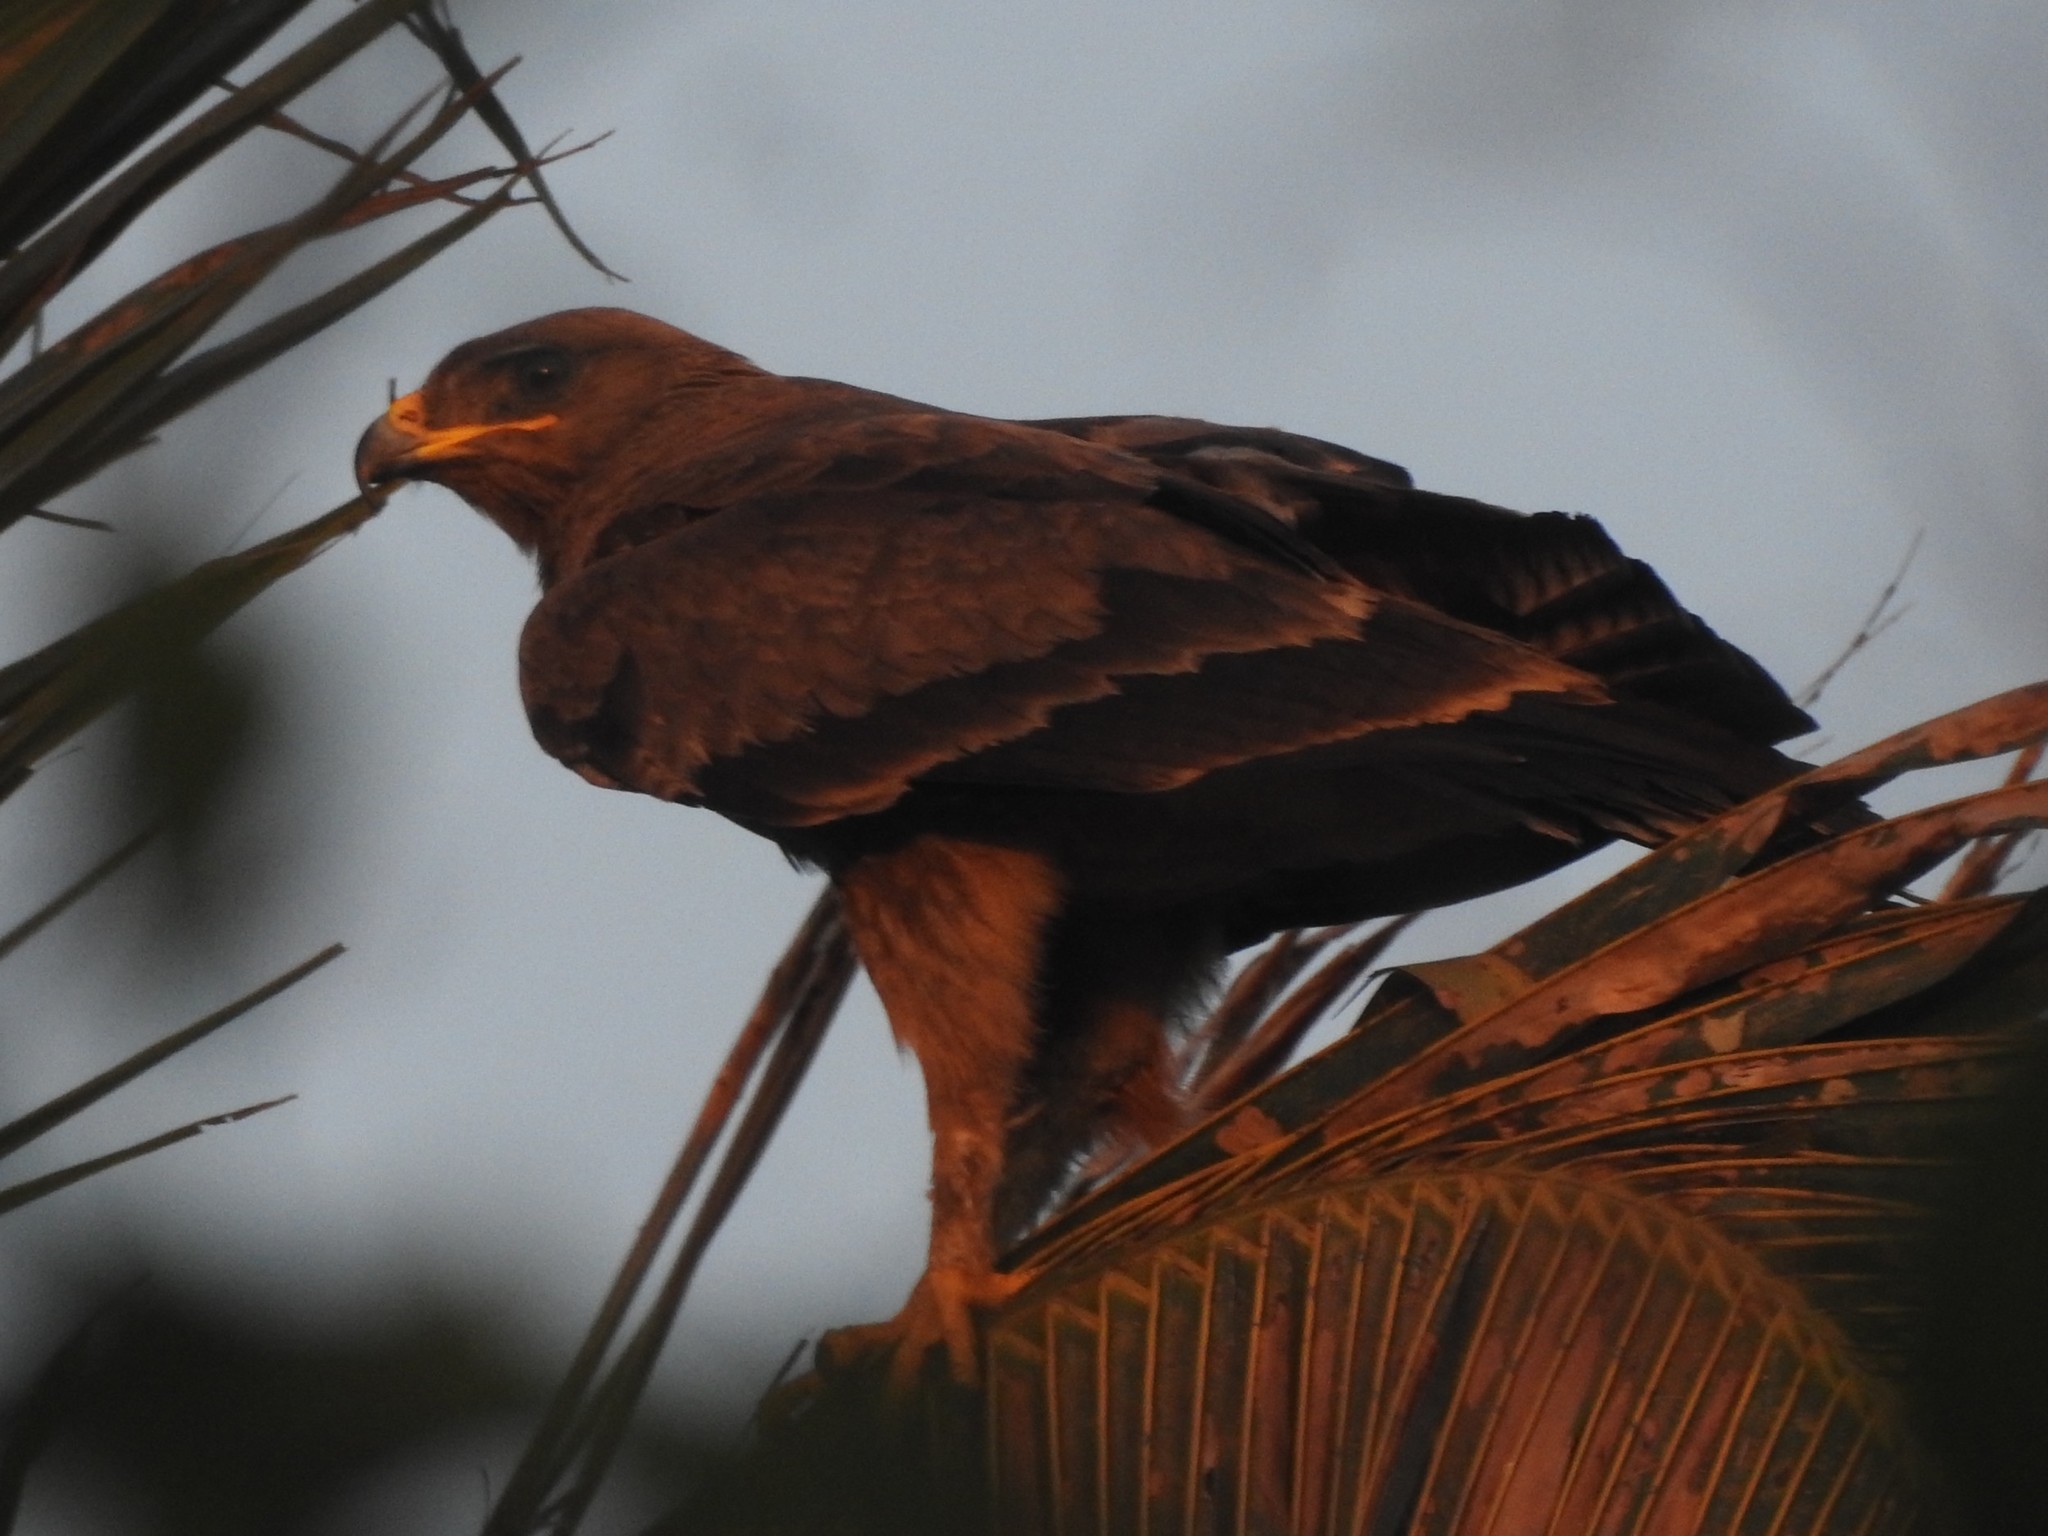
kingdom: Animalia
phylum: Chordata
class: Aves
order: Accipitriformes
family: Accipitridae
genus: Aquila
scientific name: Aquila hastata
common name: Indian spotted eagle
